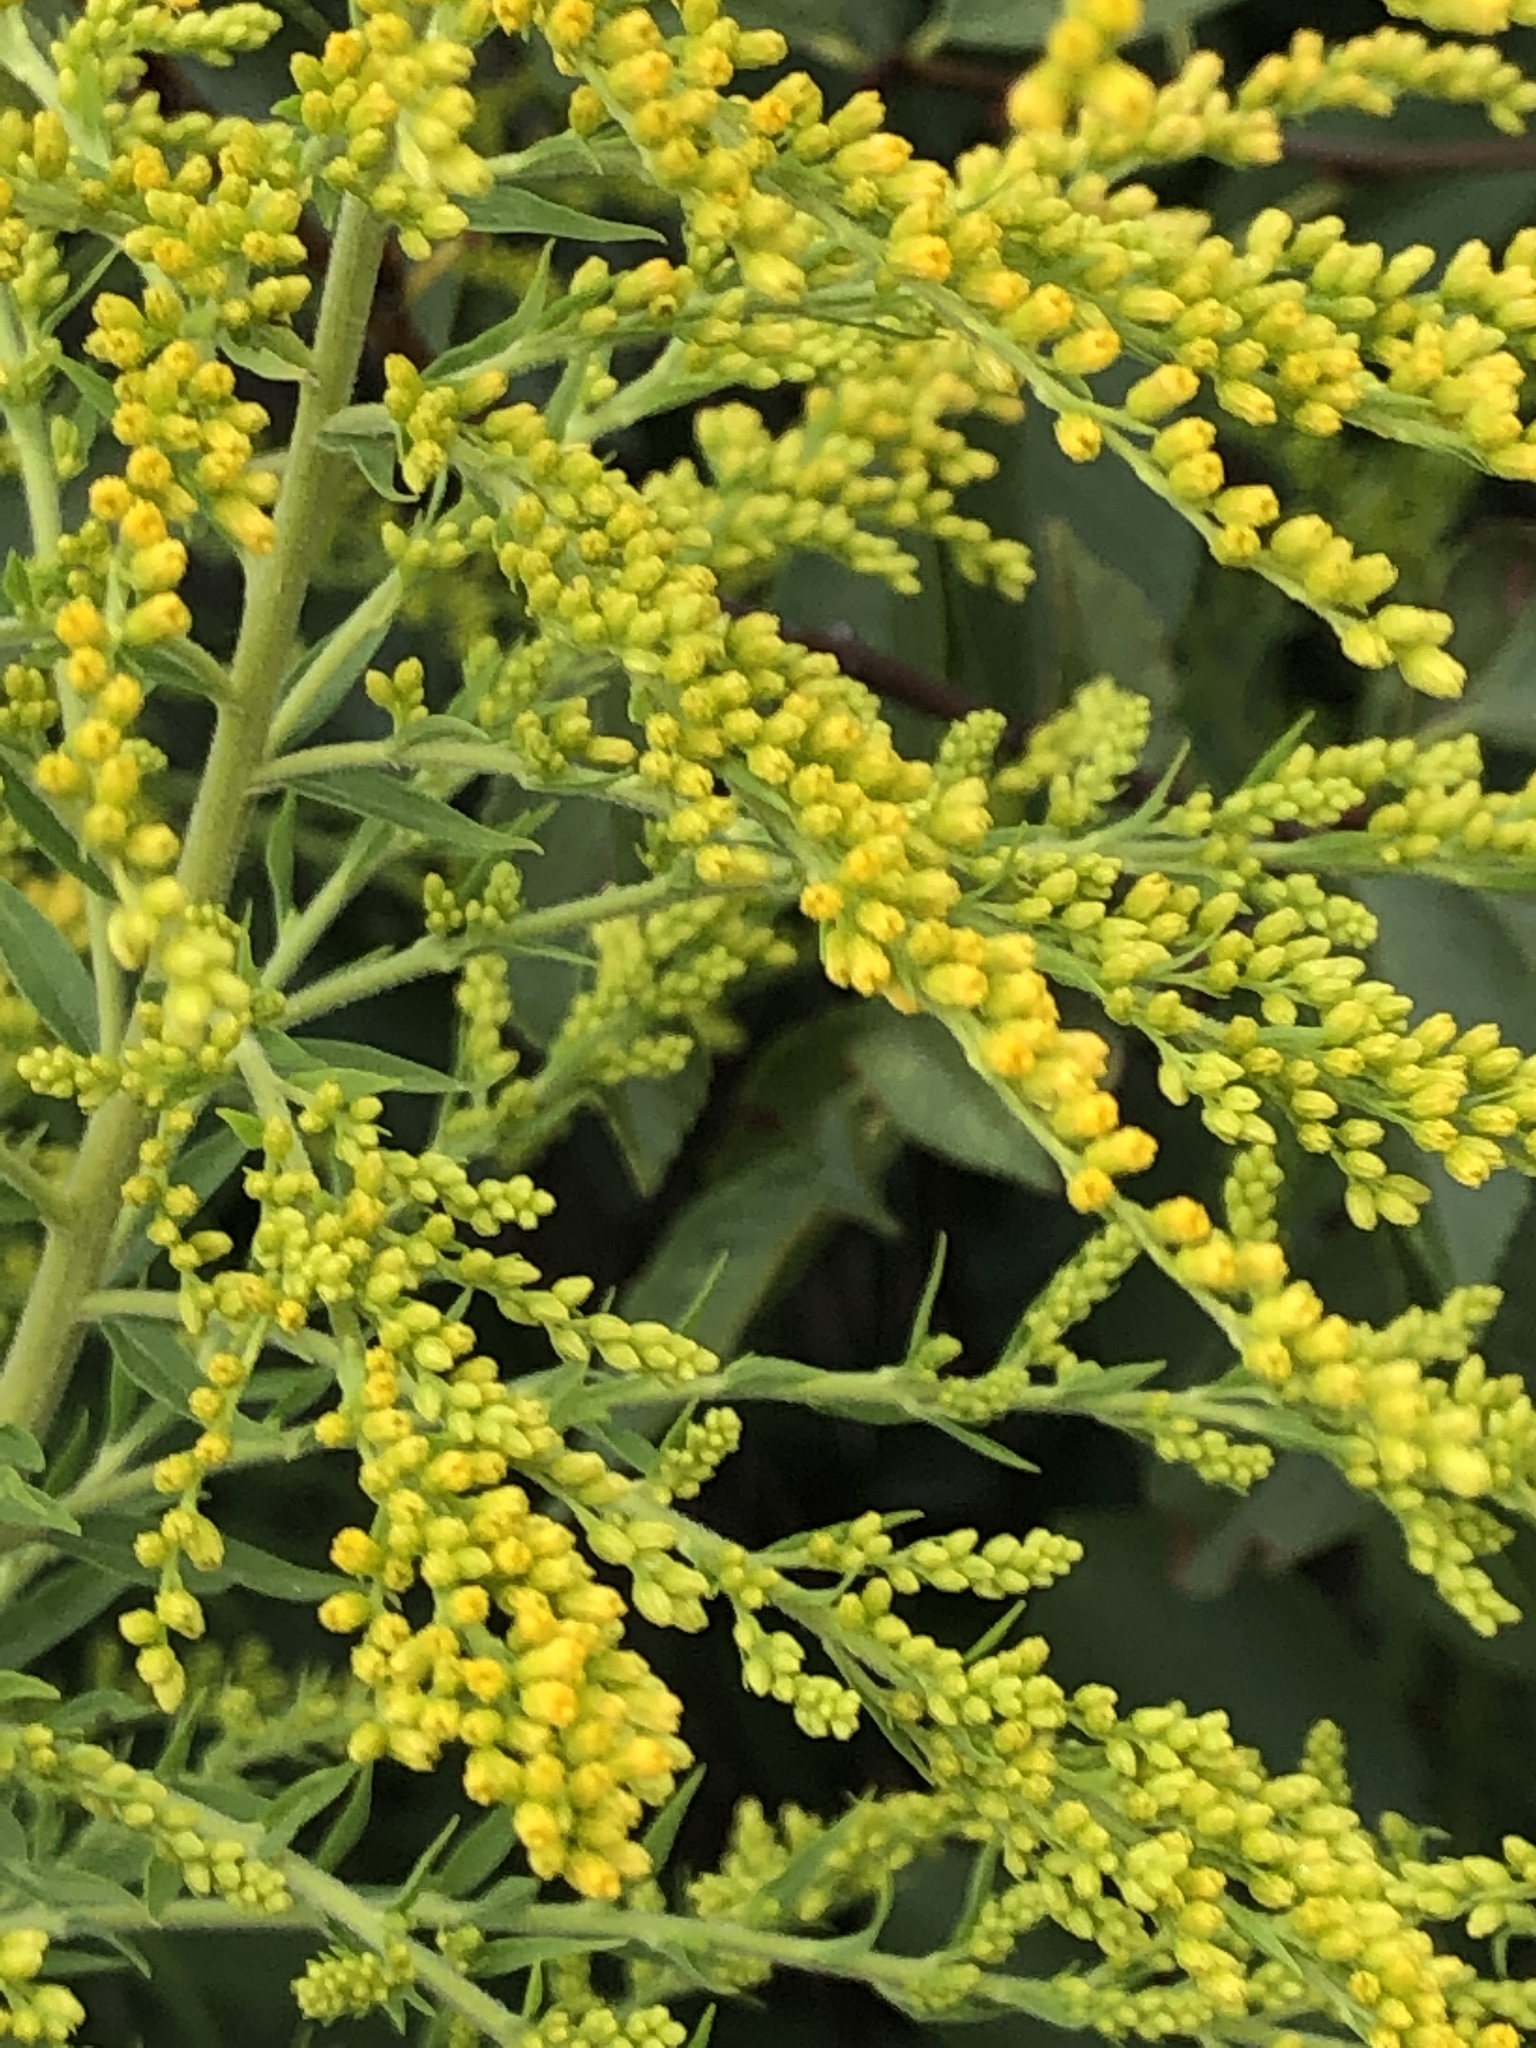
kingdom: Plantae
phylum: Tracheophyta
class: Magnoliopsida
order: Asterales
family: Asteraceae
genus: Solidago
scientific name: Solidago canadensis
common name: Canada goldenrod
